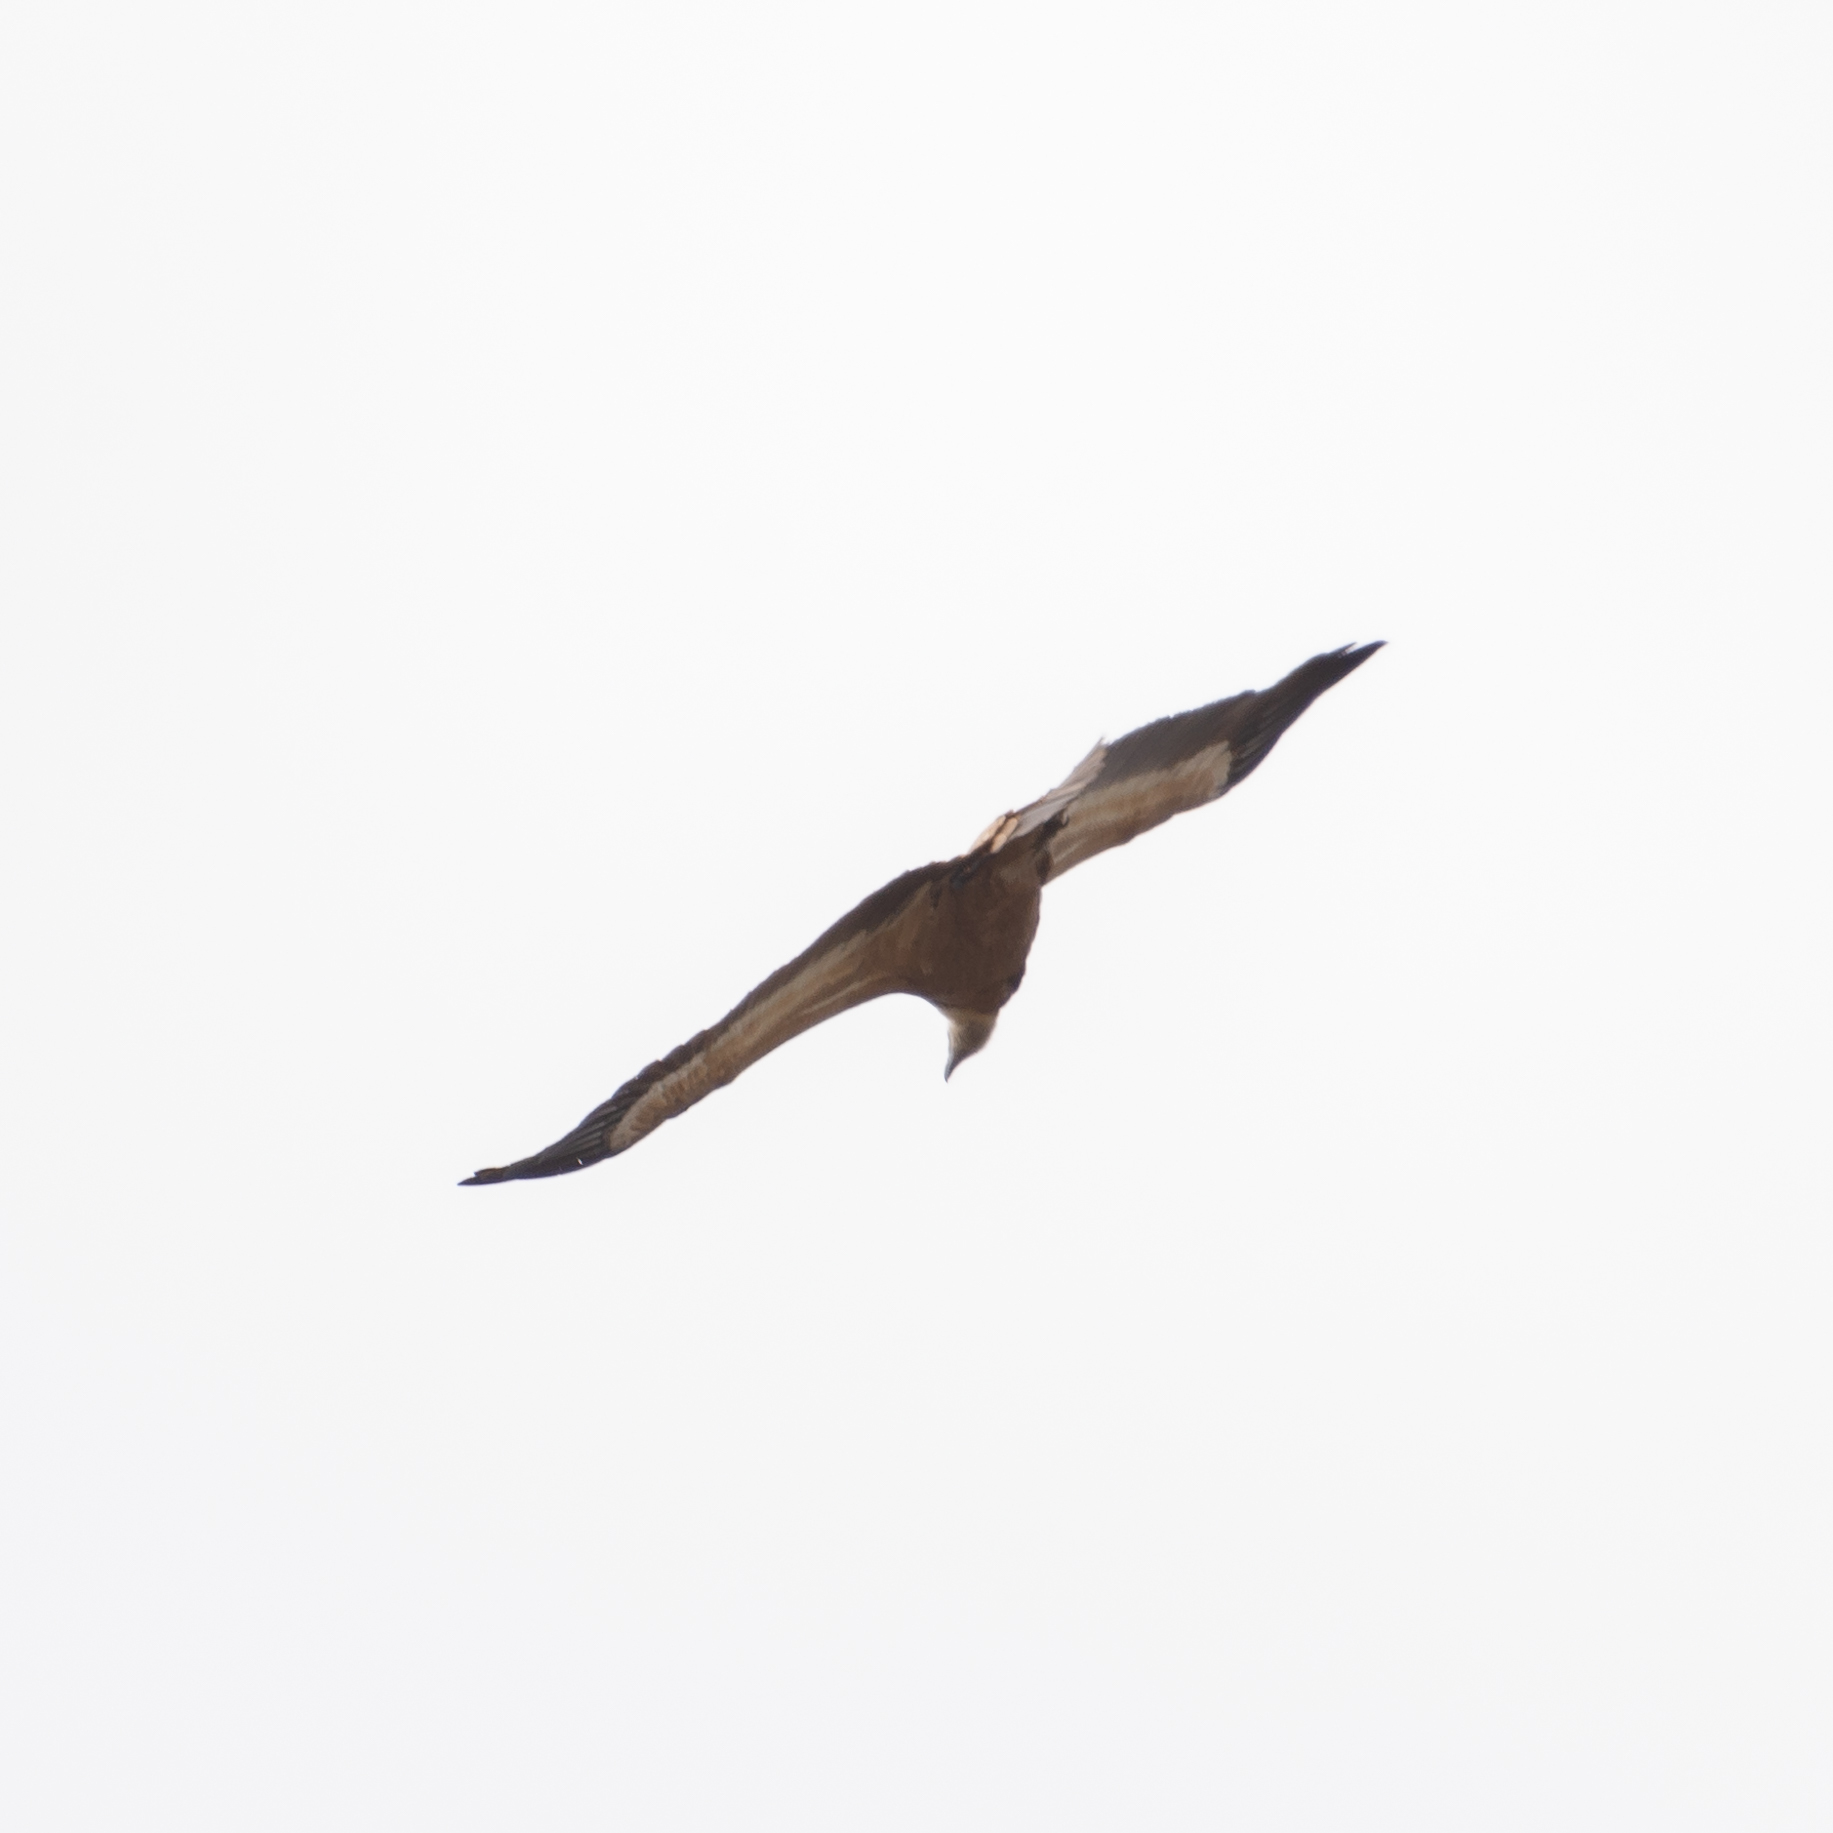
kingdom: Animalia
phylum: Chordata
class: Aves
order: Accipitriformes
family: Accipitridae
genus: Gyps
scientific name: Gyps fulvus
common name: Griffon vulture
